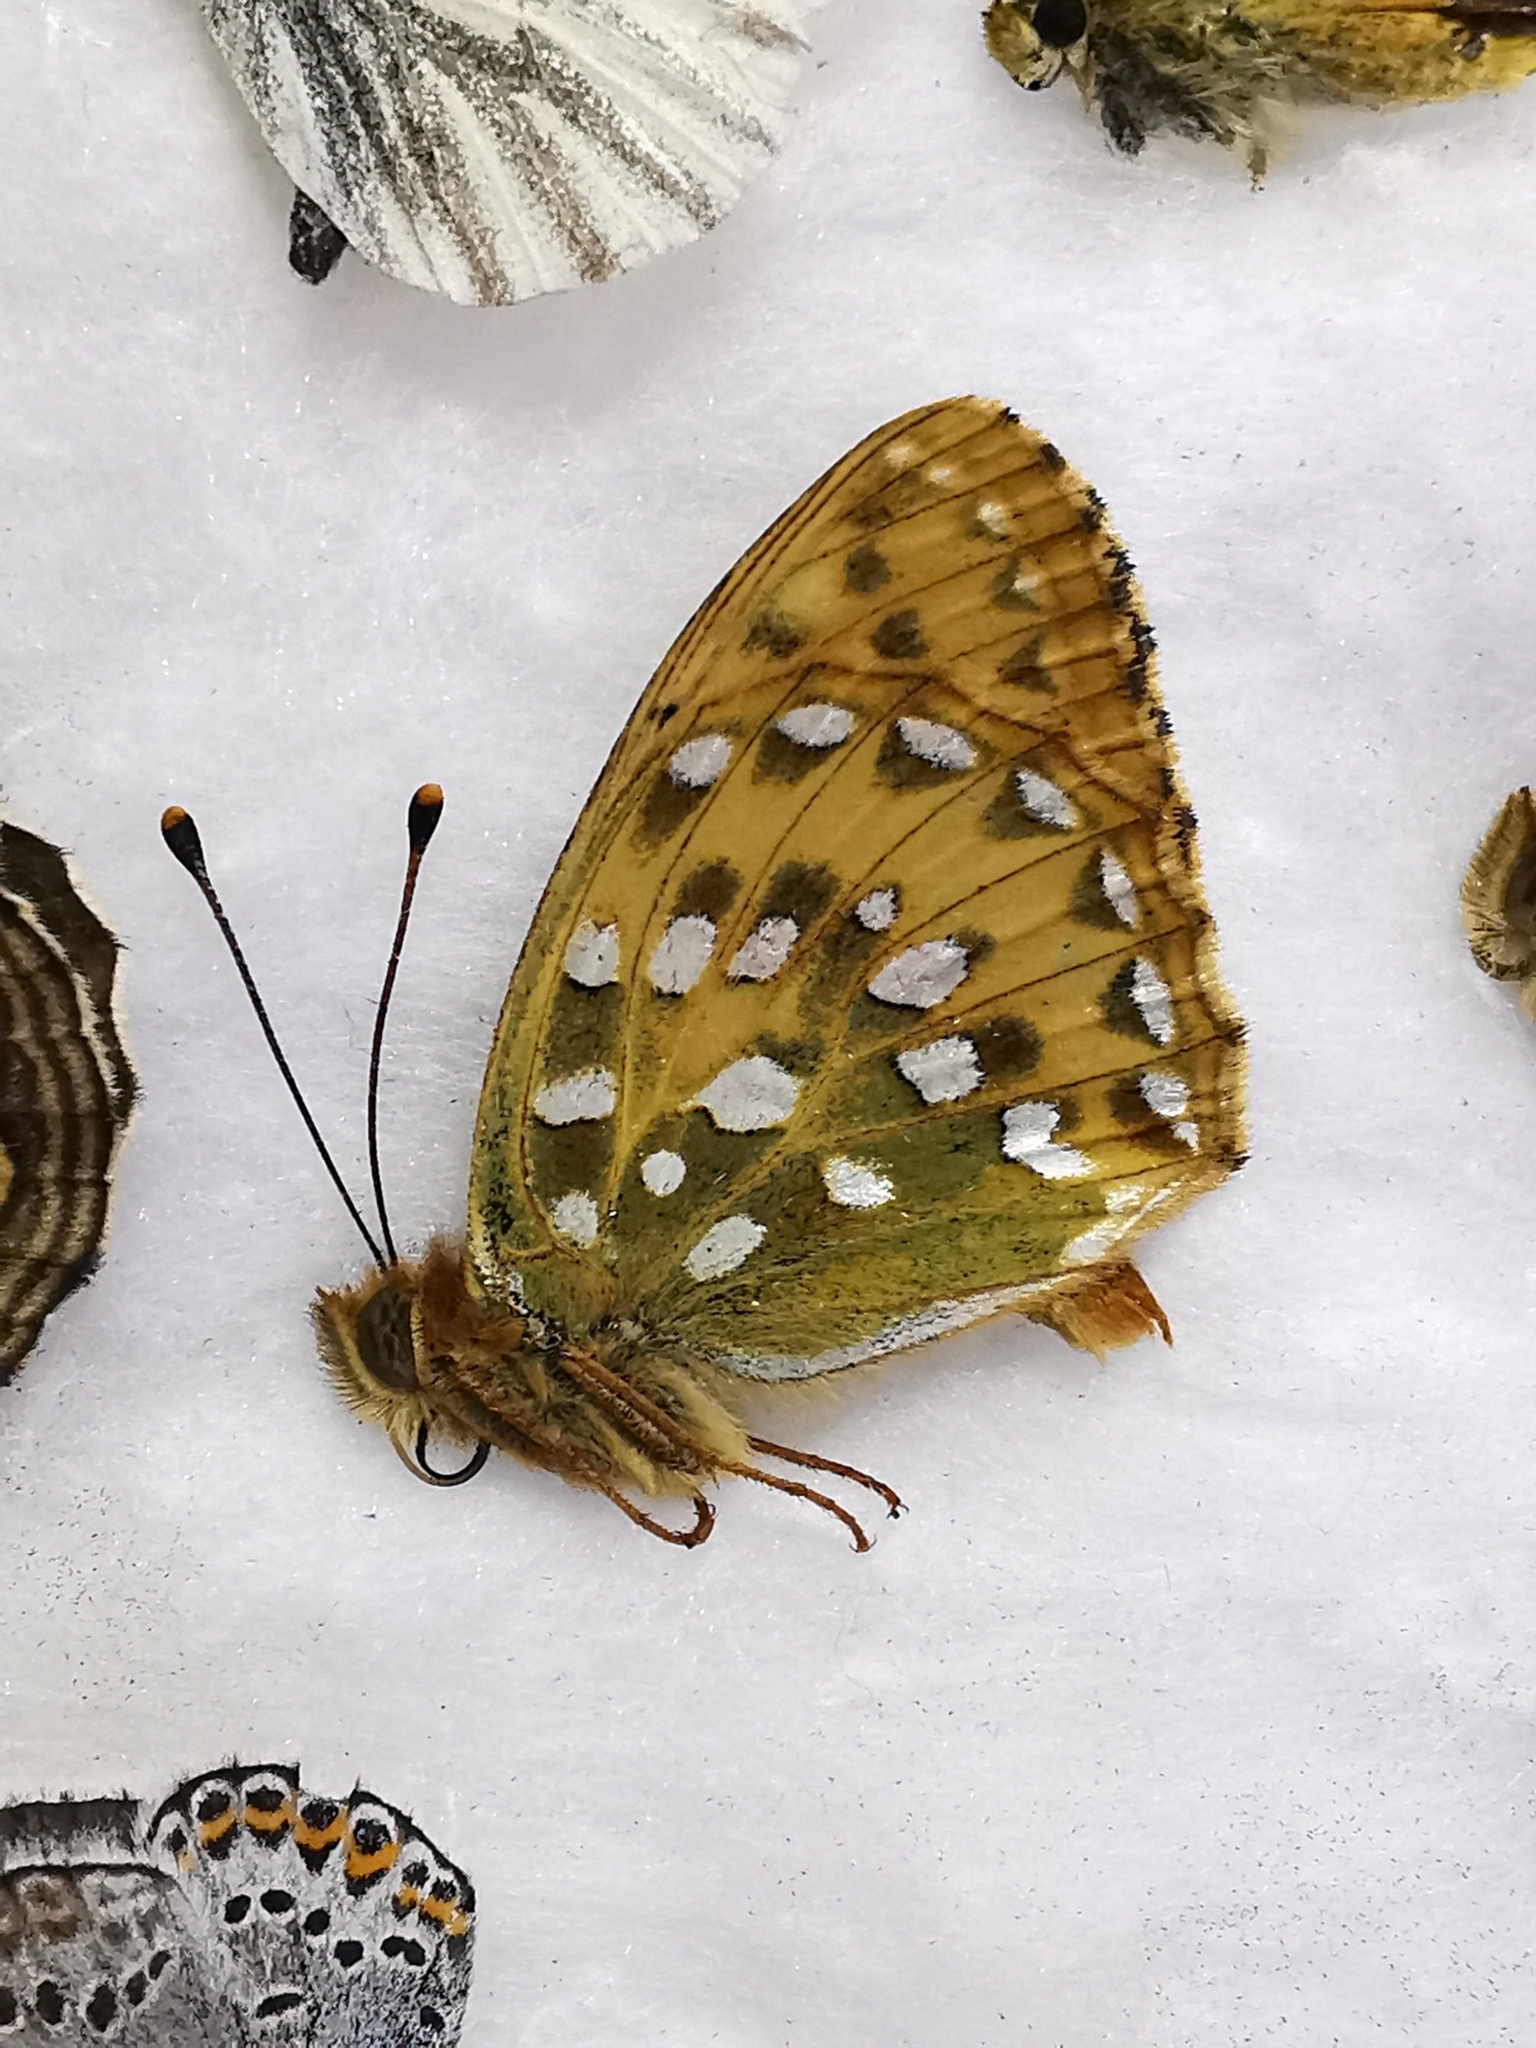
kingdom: Animalia
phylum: Arthropoda
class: Insecta
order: Lepidoptera
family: Nymphalidae
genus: Speyeria
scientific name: Speyeria aglaja
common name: Dark green fritillary
